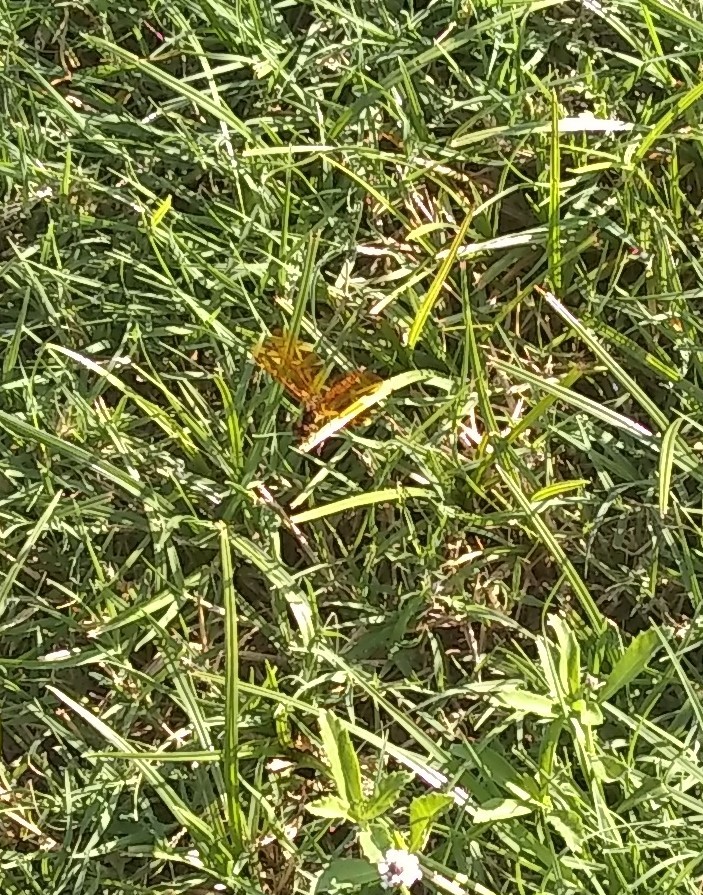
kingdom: Animalia
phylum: Arthropoda
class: Insecta
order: Odonata
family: Libellulidae
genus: Perithemis
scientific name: Perithemis tenera
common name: Eastern amberwing
